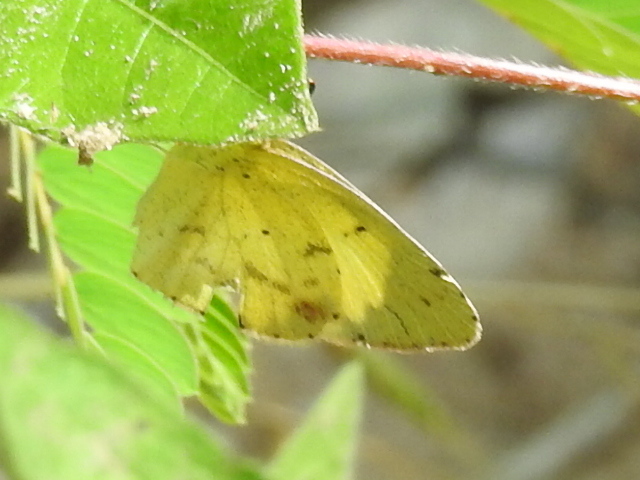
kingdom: Animalia
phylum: Arthropoda
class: Insecta
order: Lepidoptera
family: Pieridae
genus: Pyrisitia
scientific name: Pyrisitia lisa
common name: Little yellow
